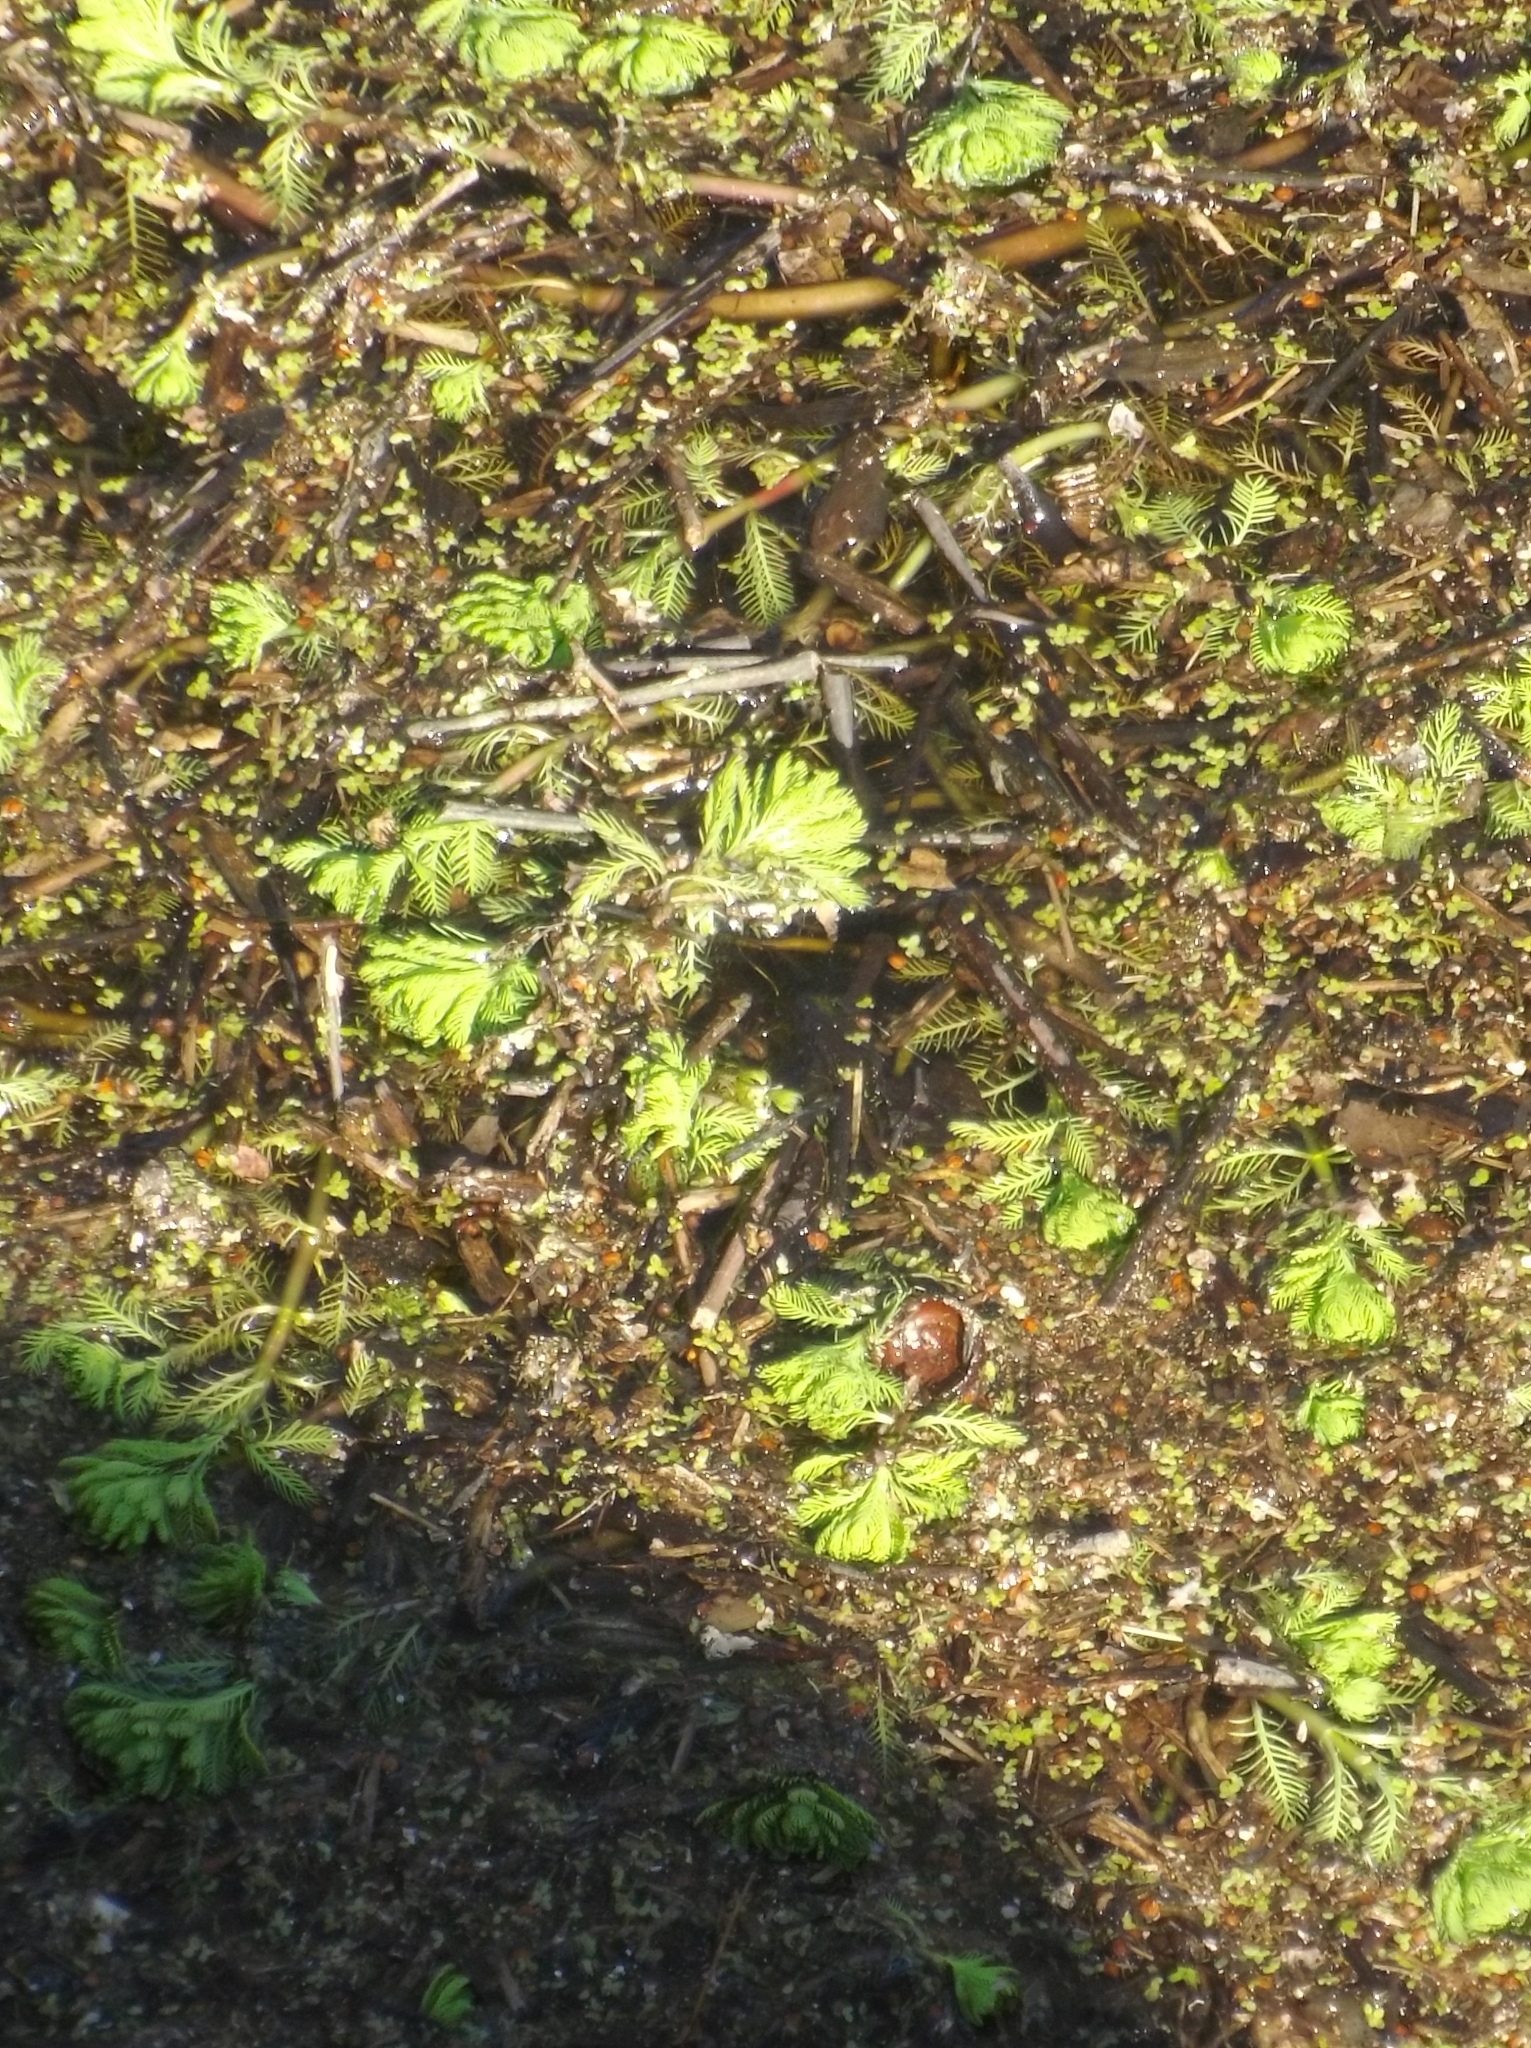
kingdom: Plantae
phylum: Tracheophyta
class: Magnoliopsida
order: Saxifragales
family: Haloragaceae
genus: Myriophyllum
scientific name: Myriophyllum aquaticum
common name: Parrot's feather
